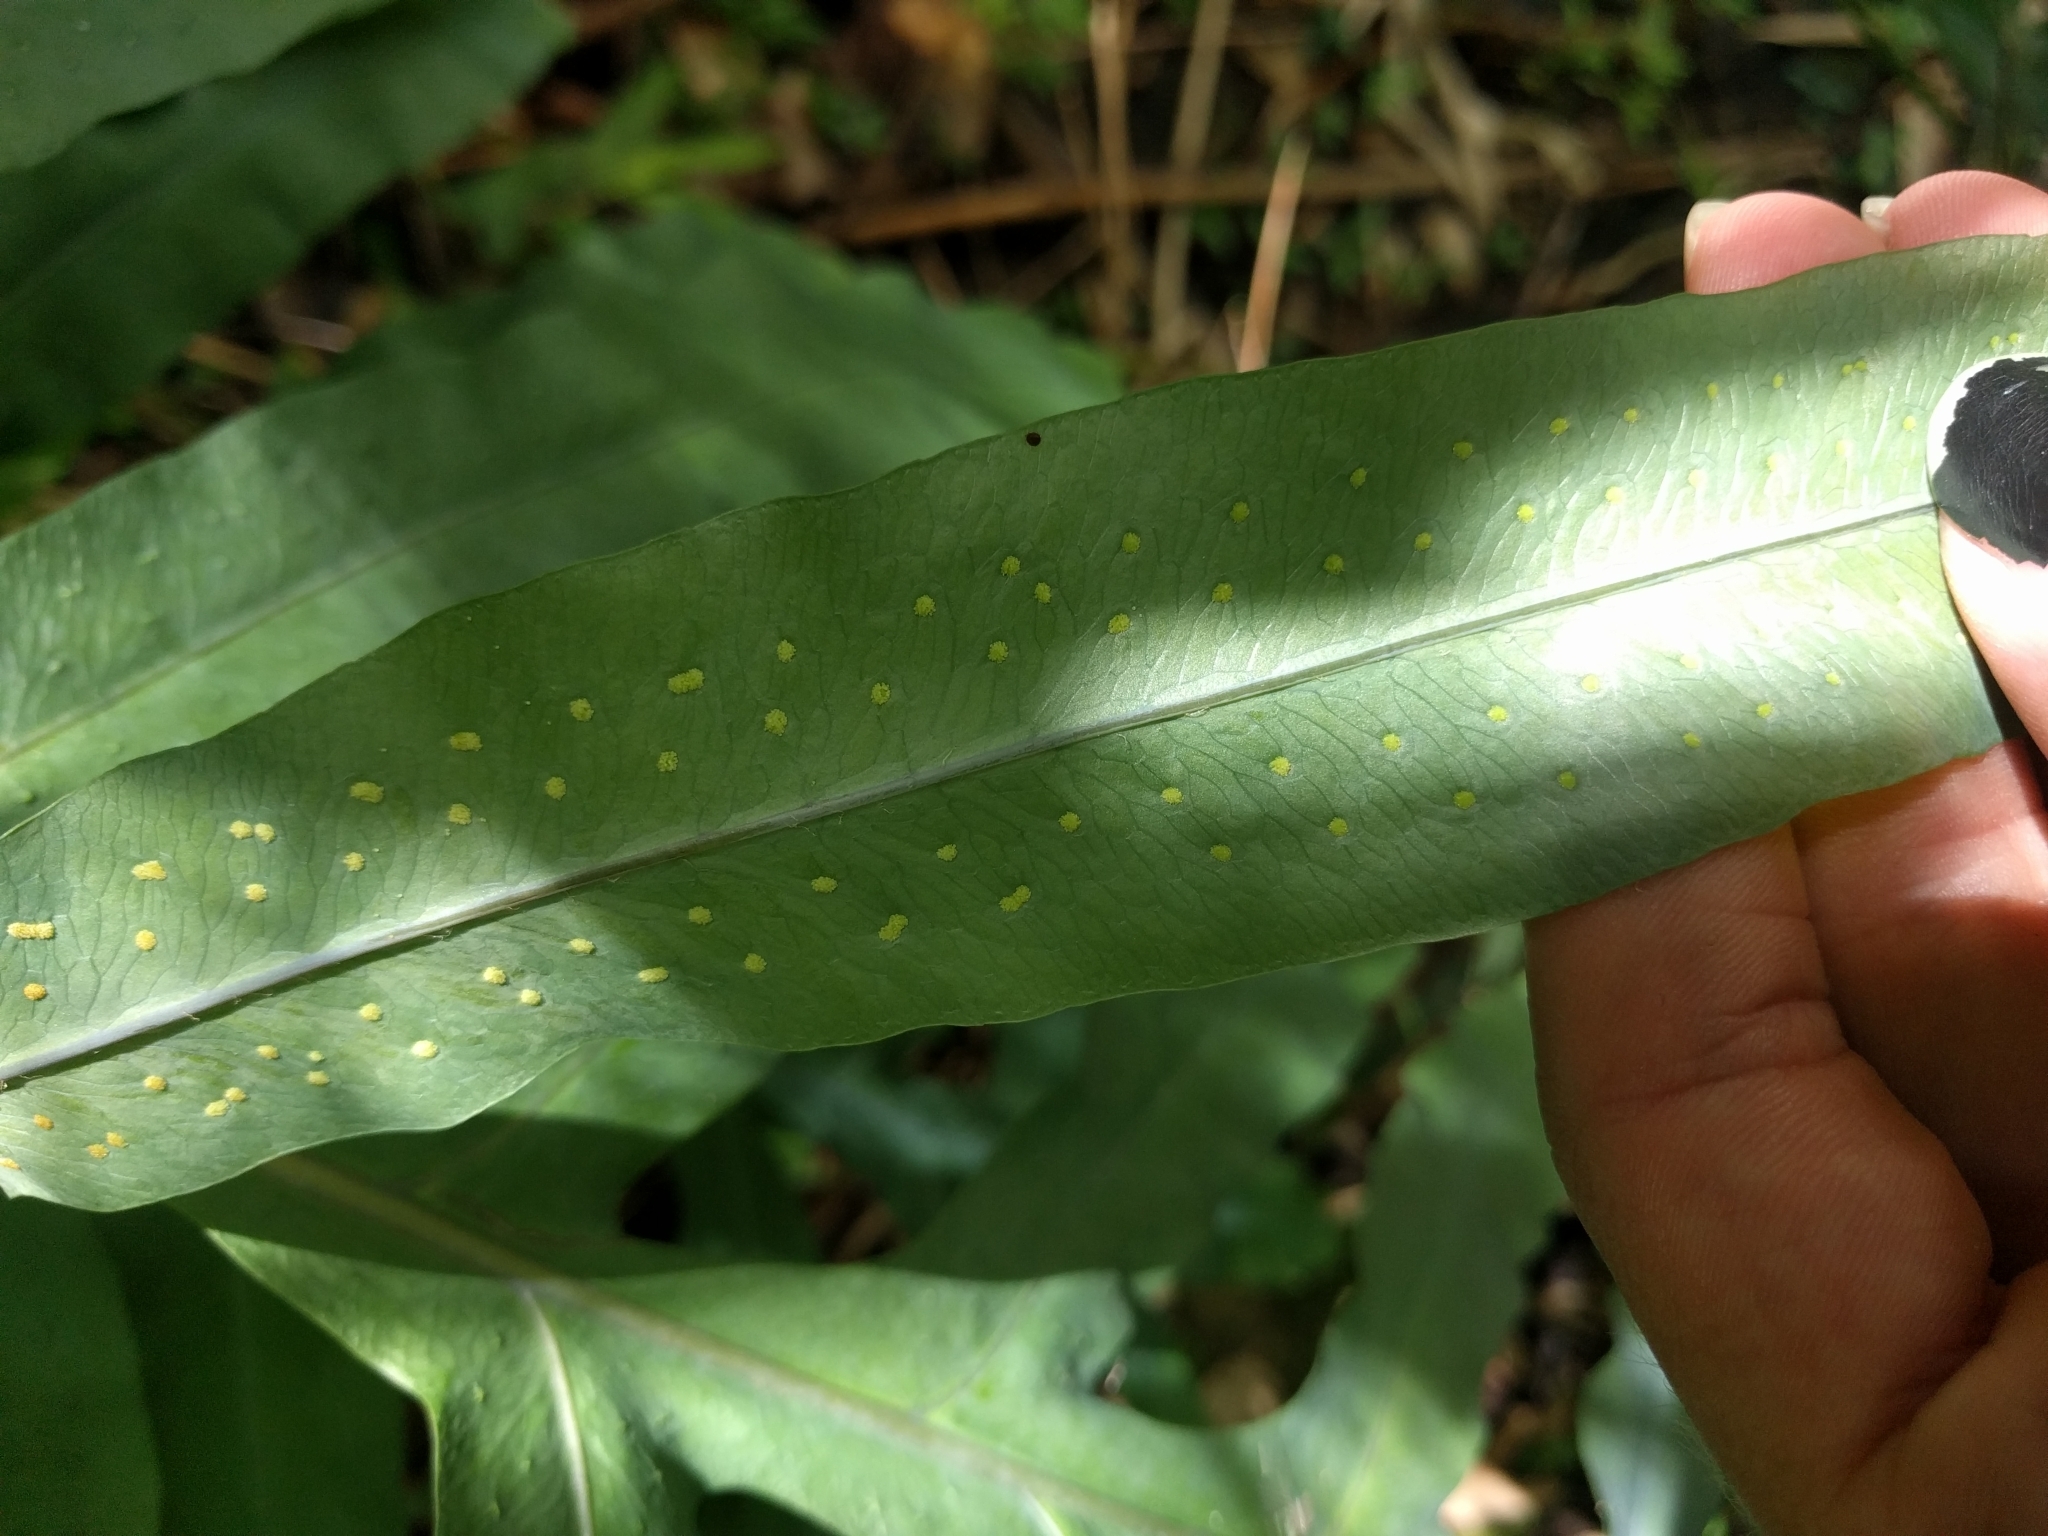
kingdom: Plantae
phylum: Tracheophyta
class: Polypodiopsida
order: Polypodiales
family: Polypodiaceae
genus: Phlebodium
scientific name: Phlebodium aureum
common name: Gold-foot fern
